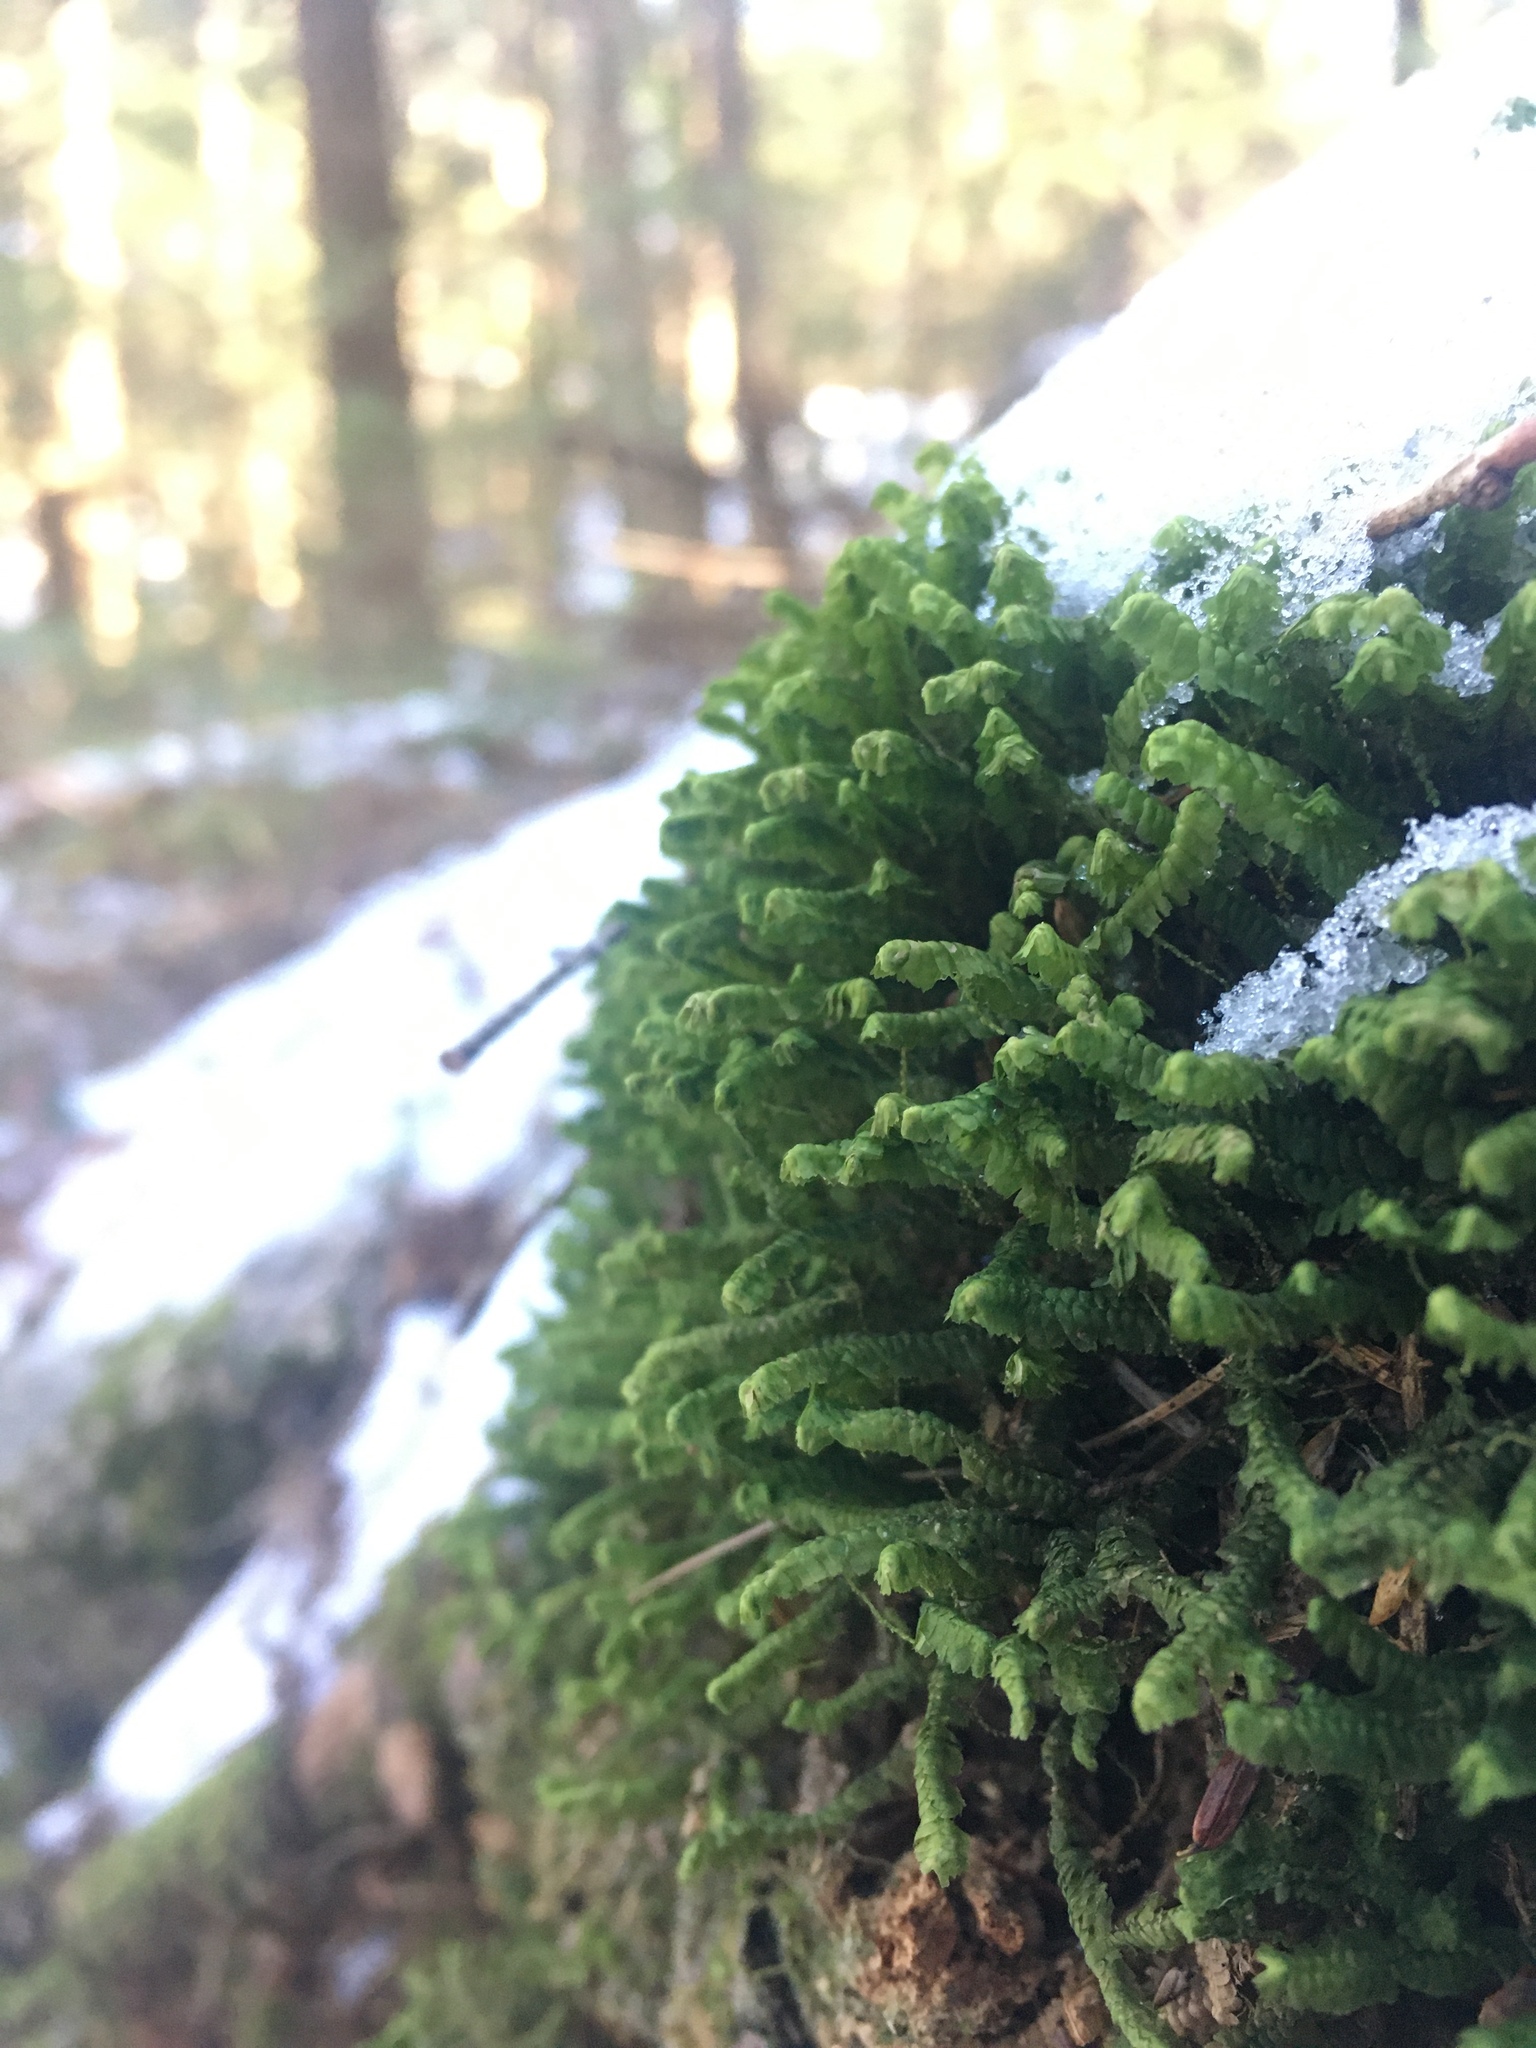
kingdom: Plantae
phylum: Marchantiophyta
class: Jungermanniopsida
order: Jungermanniales
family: Lepidoziaceae
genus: Bazzania
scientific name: Bazzania trilobata
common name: Three-lobed whipwort
